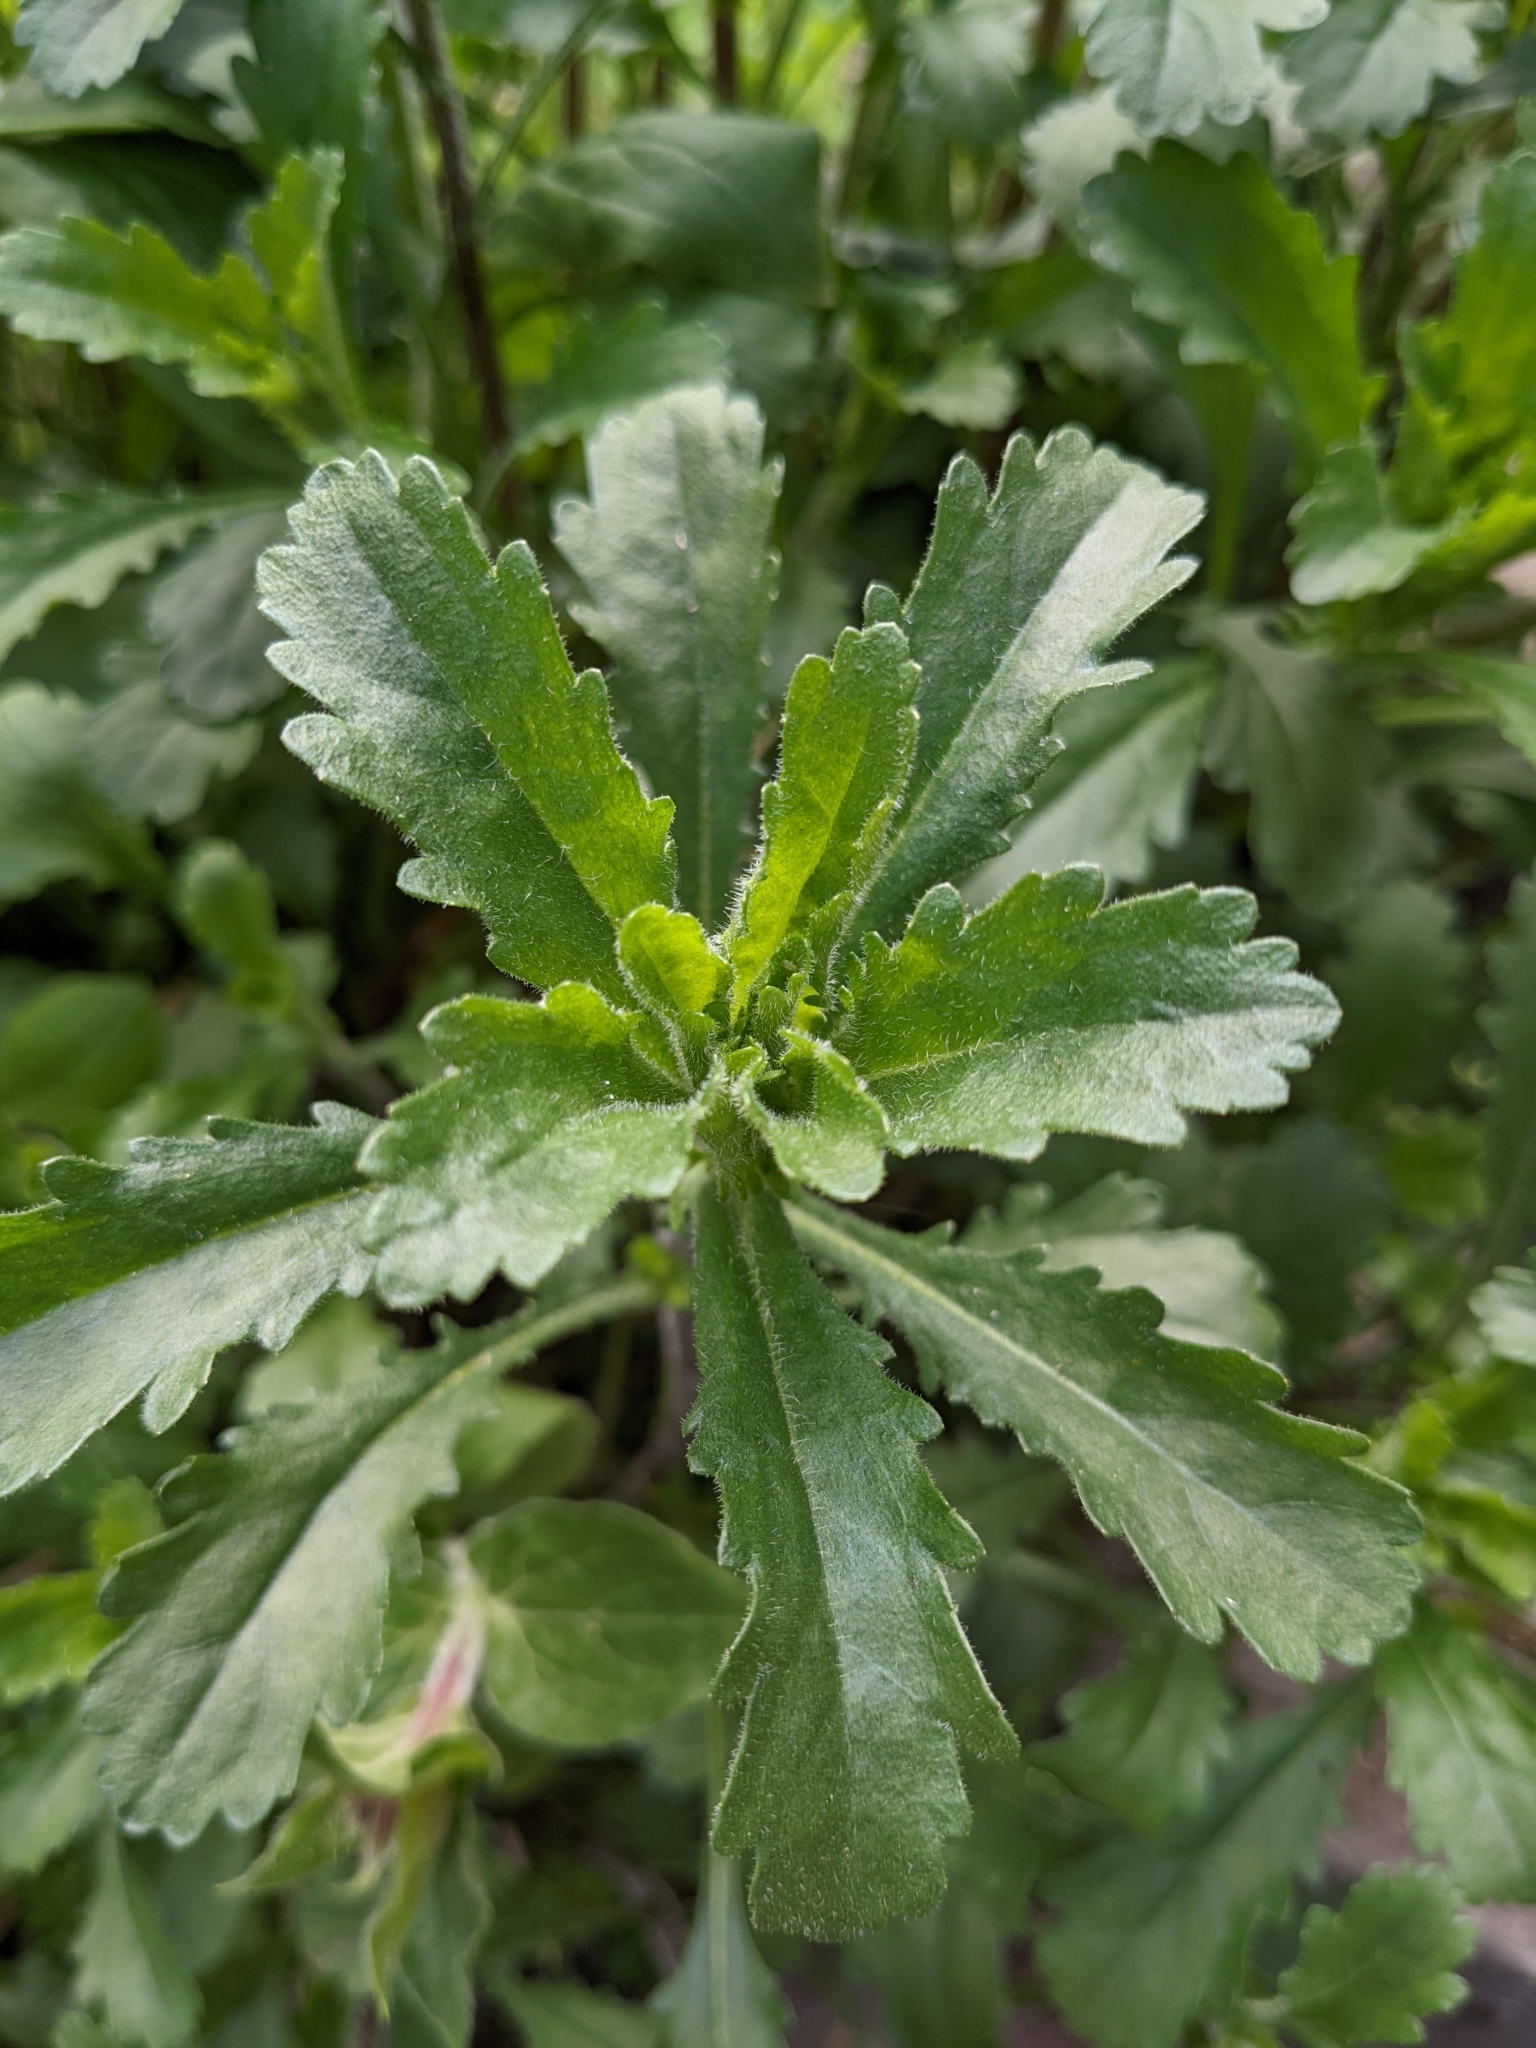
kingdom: Plantae
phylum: Tracheophyta
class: Magnoliopsida
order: Asterales
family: Asteraceae
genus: Leucanthemum
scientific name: Leucanthemum vulgare
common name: Oxeye daisy
